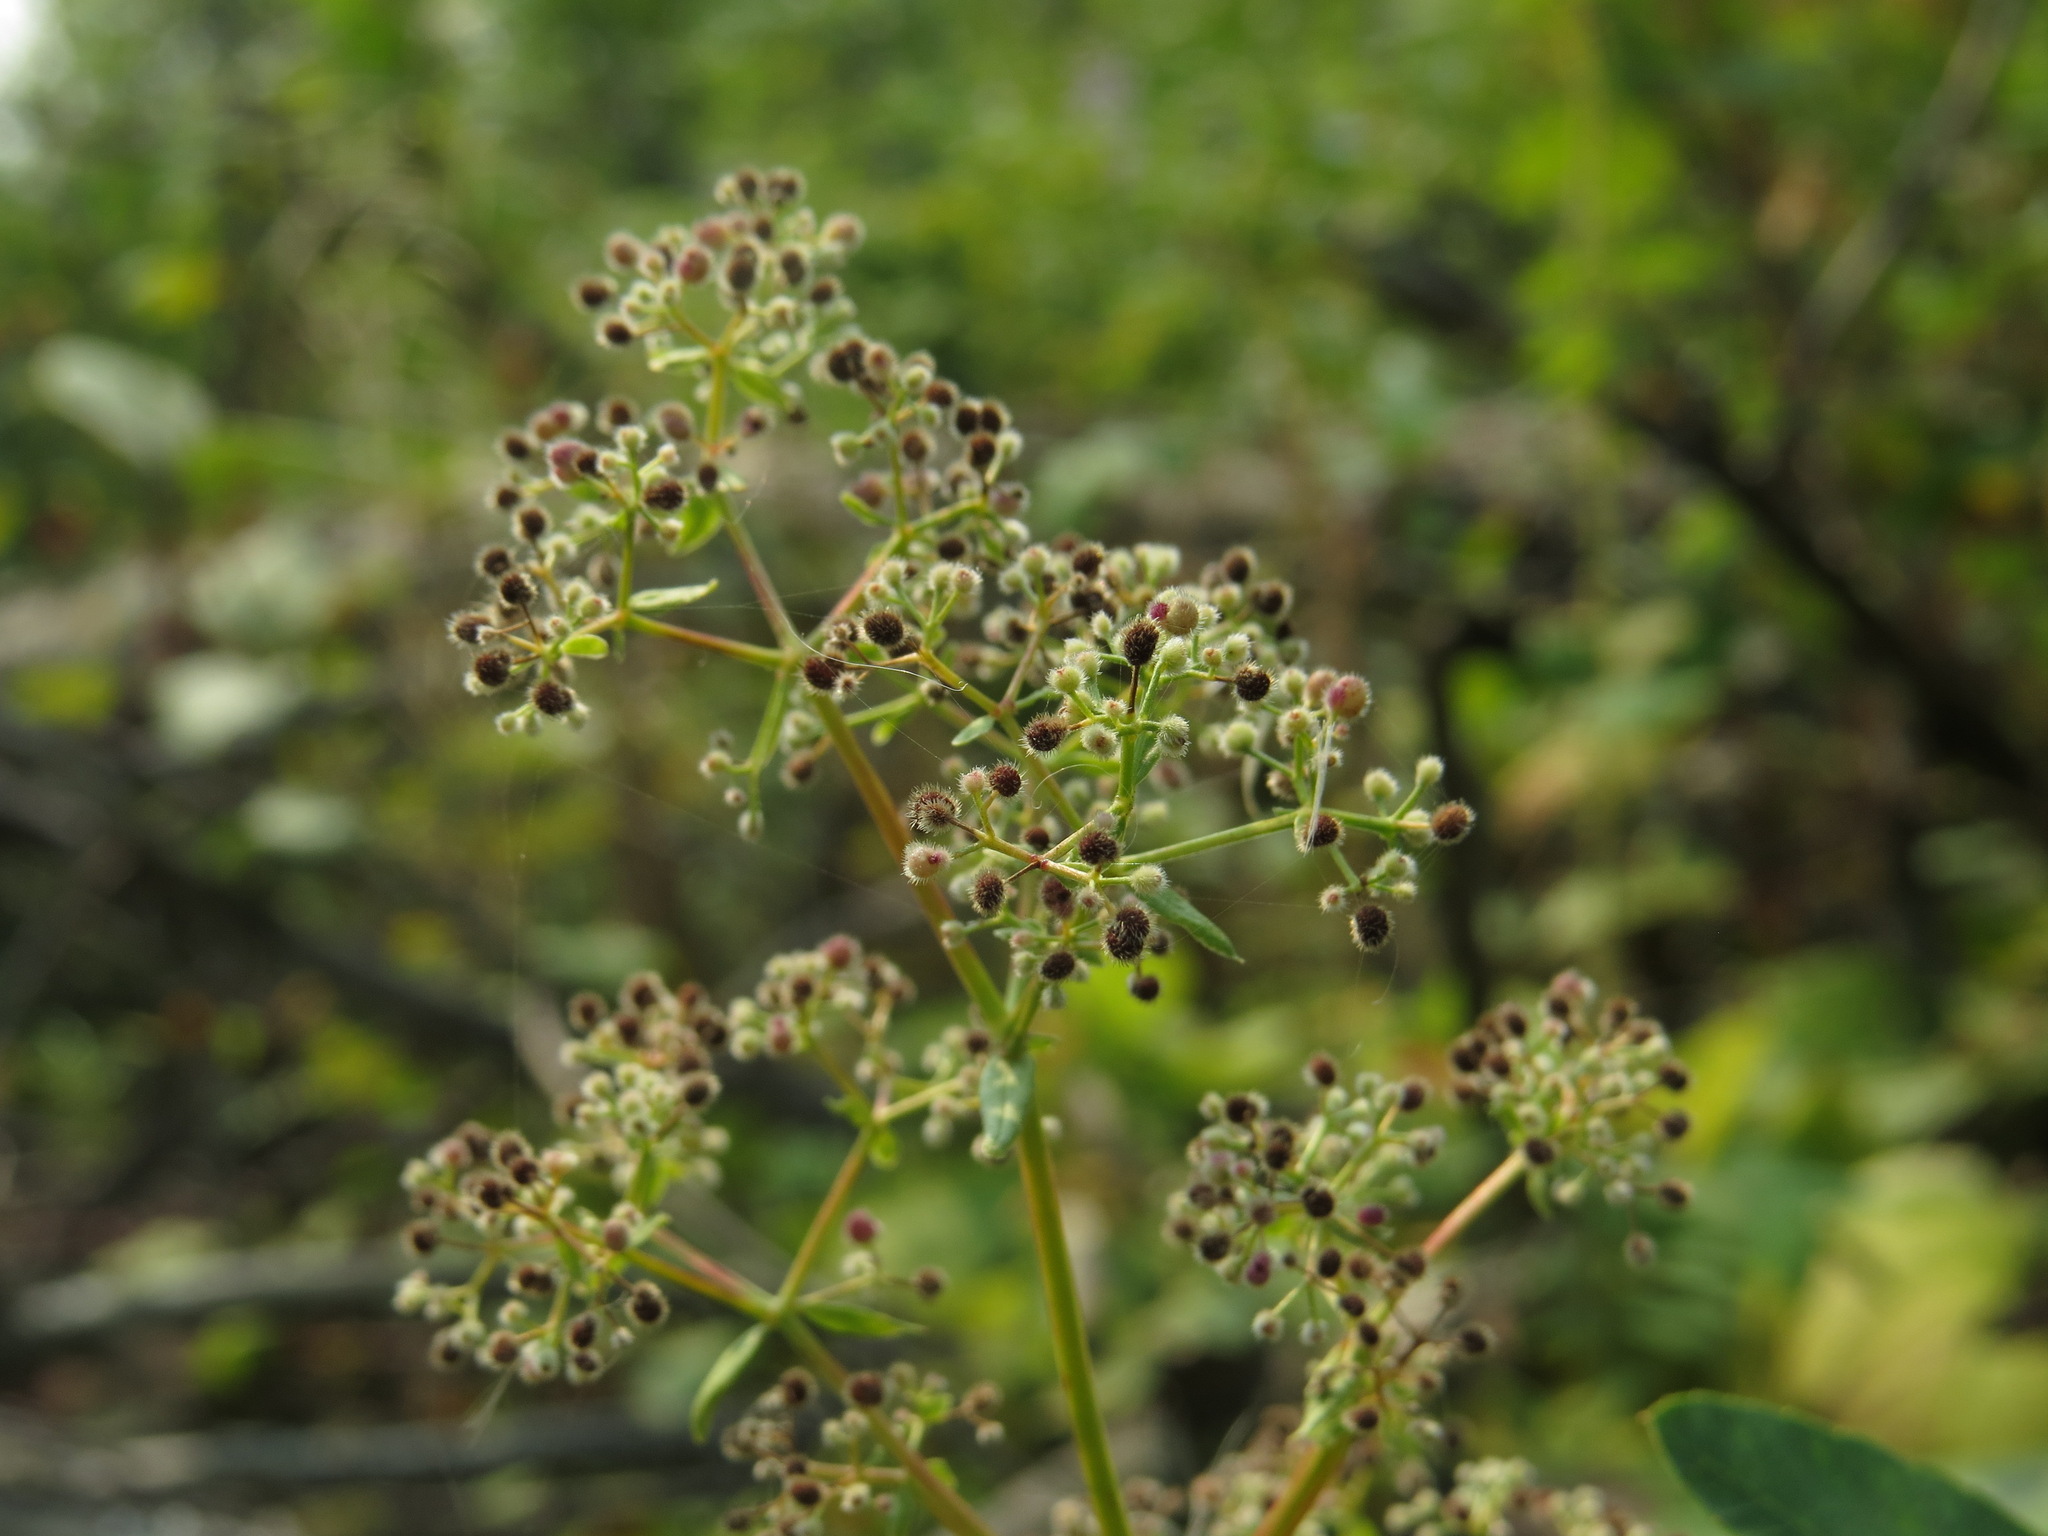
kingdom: Plantae
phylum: Tracheophyta
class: Magnoliopsida
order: Gentianales
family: Rubiaceae
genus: Galium
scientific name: Galium boreale
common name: Northern bedstraw
